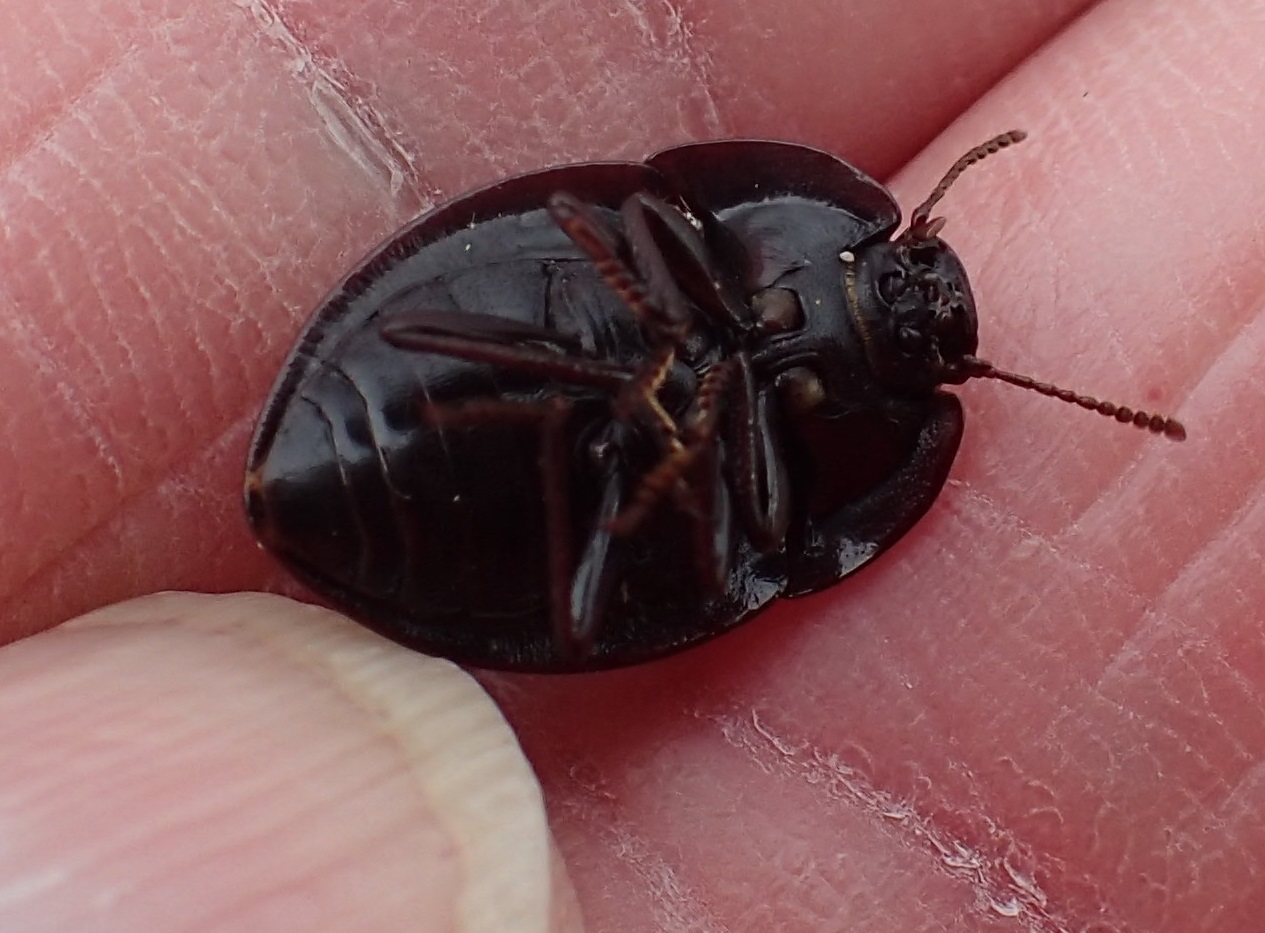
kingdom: Animalia
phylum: Arthropoda
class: Insecta
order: Coleoptera
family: Tenebrionidae
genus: Celibe
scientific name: Celibe
